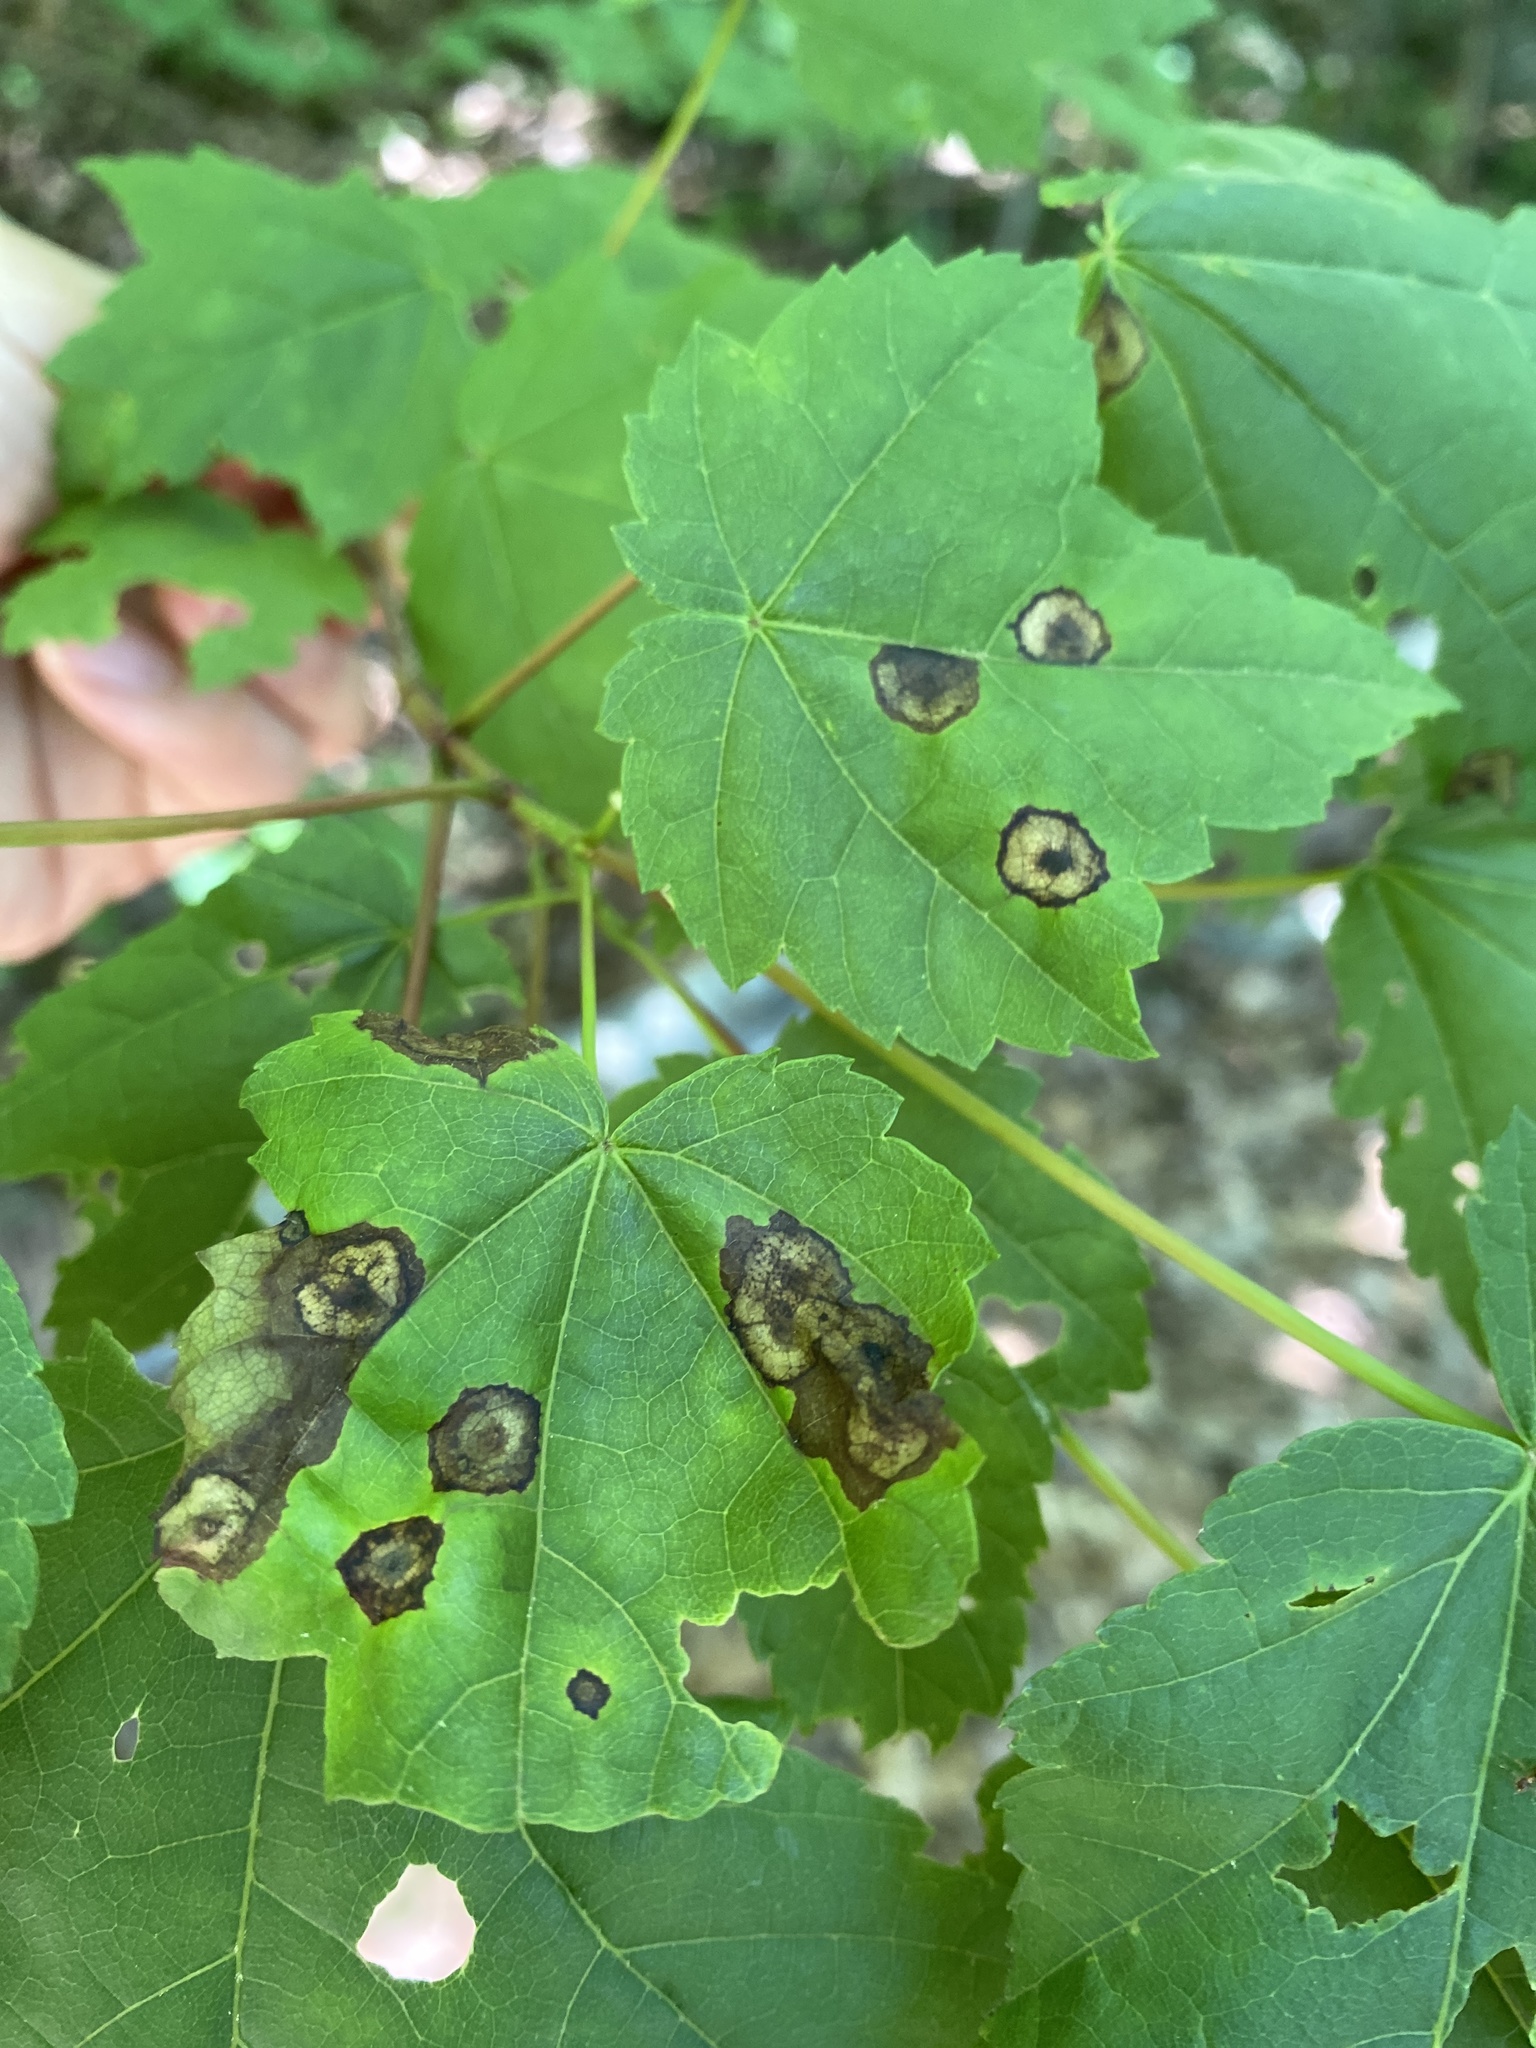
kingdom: Animalia
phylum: Arthropoda
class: Insecta
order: Diptera
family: Cecidomyiidae
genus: Acericecis
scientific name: Acericecis ocellaris
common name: Ocellate gall midge
